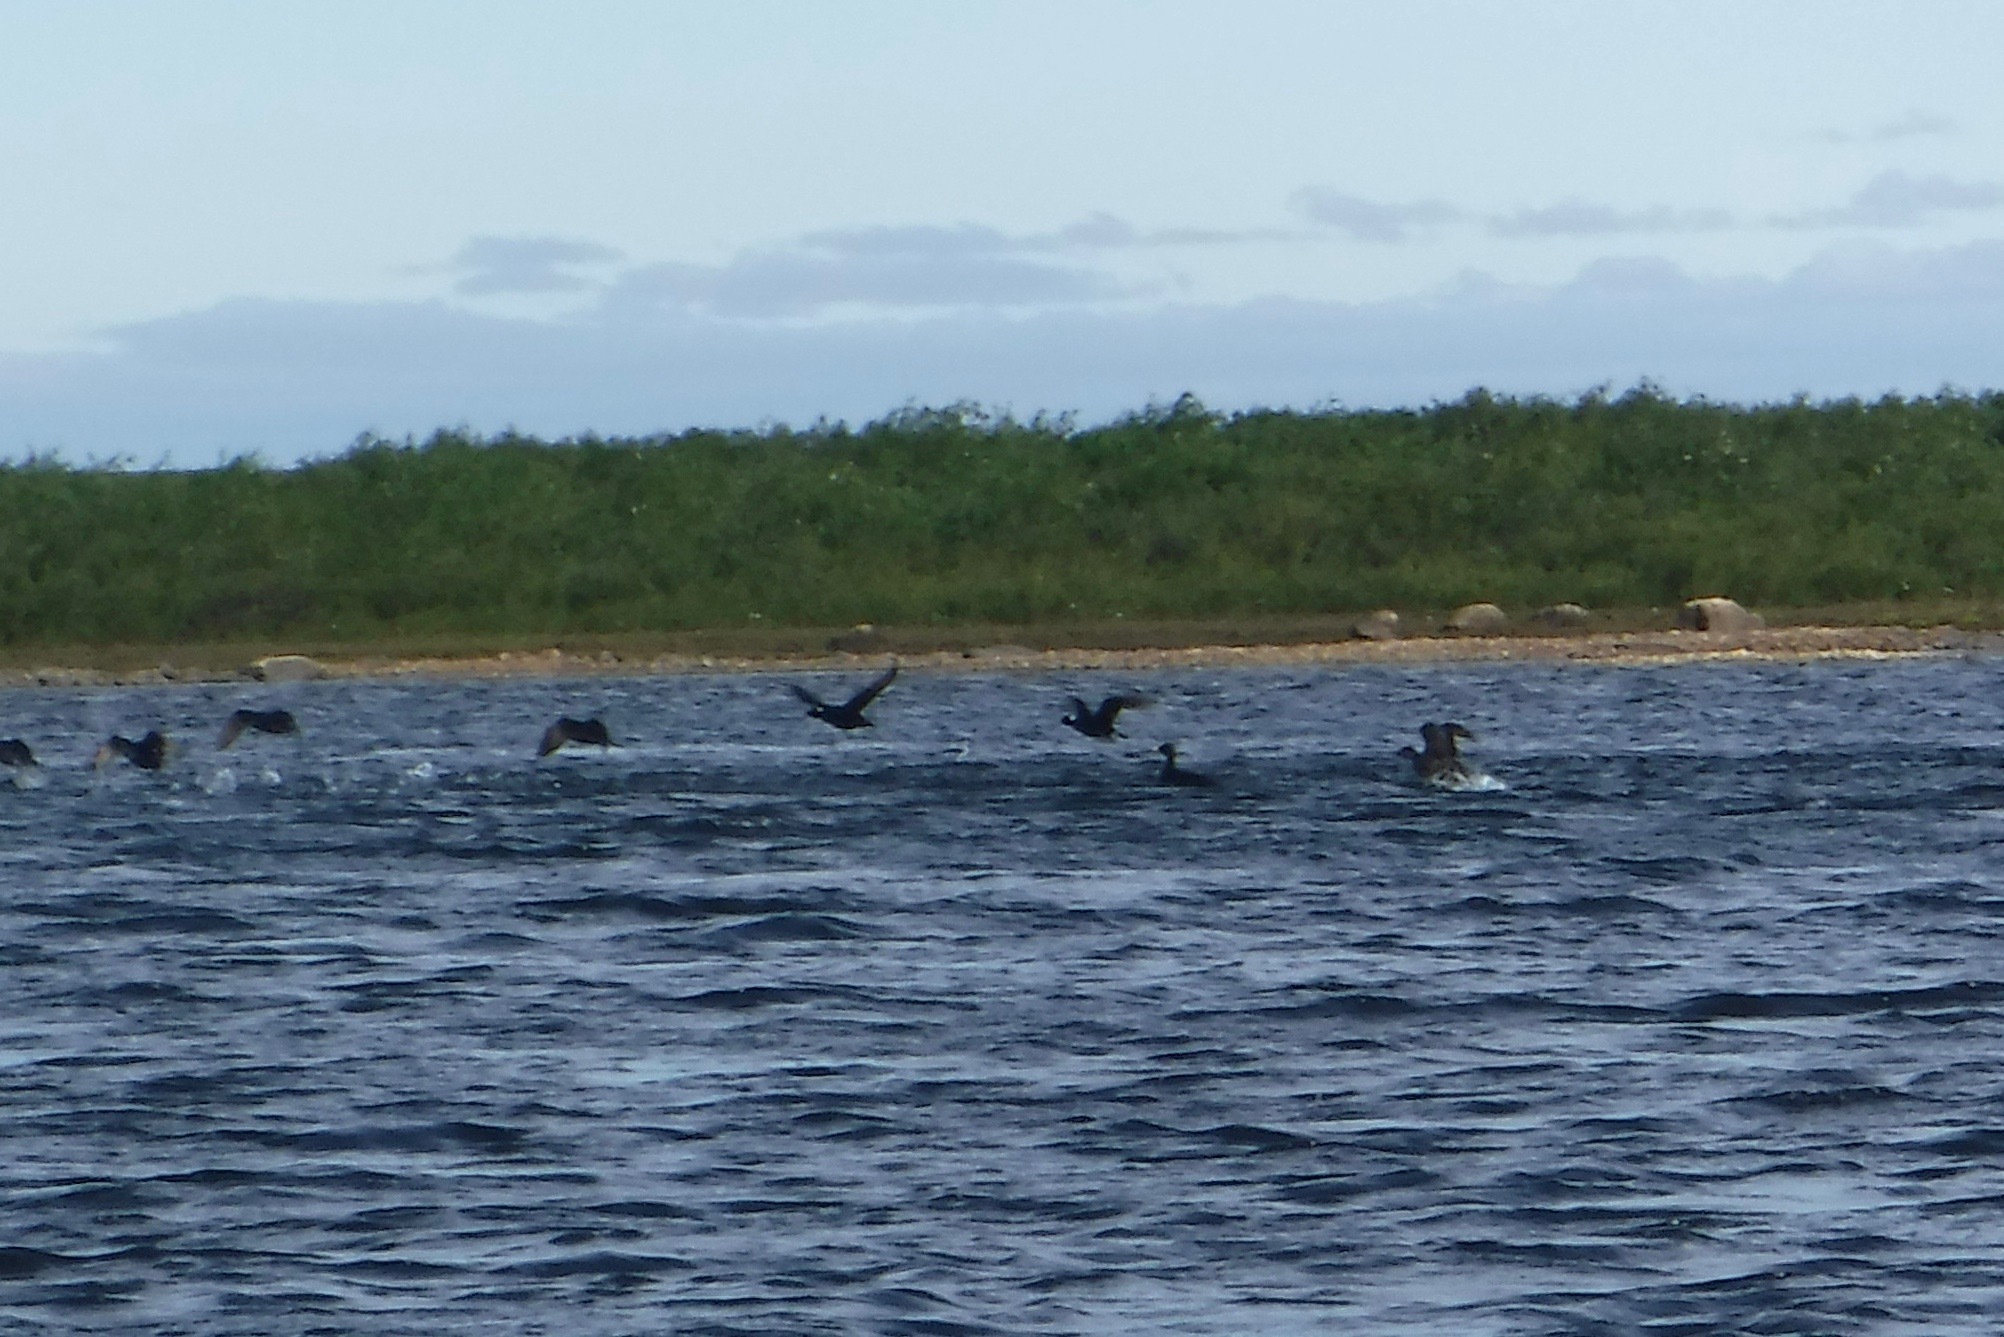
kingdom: Animalia
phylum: Chordata
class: Aves
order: Anseriformes
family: Anatidae
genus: Melanitta
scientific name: Melanitta perspicillata
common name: Surf scoter
